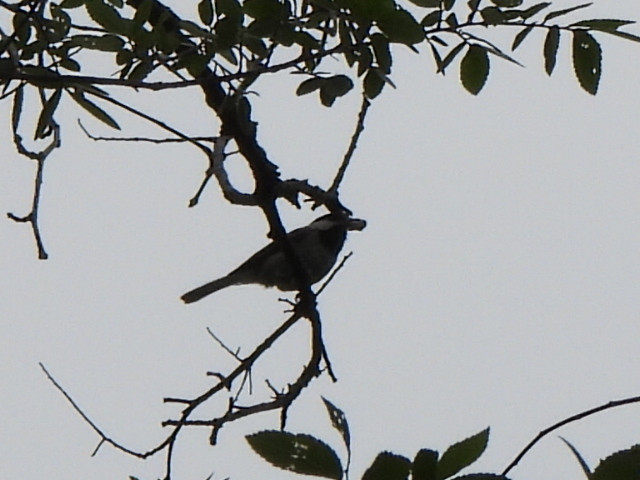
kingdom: Animalia
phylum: Chordata
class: Aves
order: Passeriformes
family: Paridae
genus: Poecile
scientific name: Poecile carolinensis
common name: Carolina chickadee
